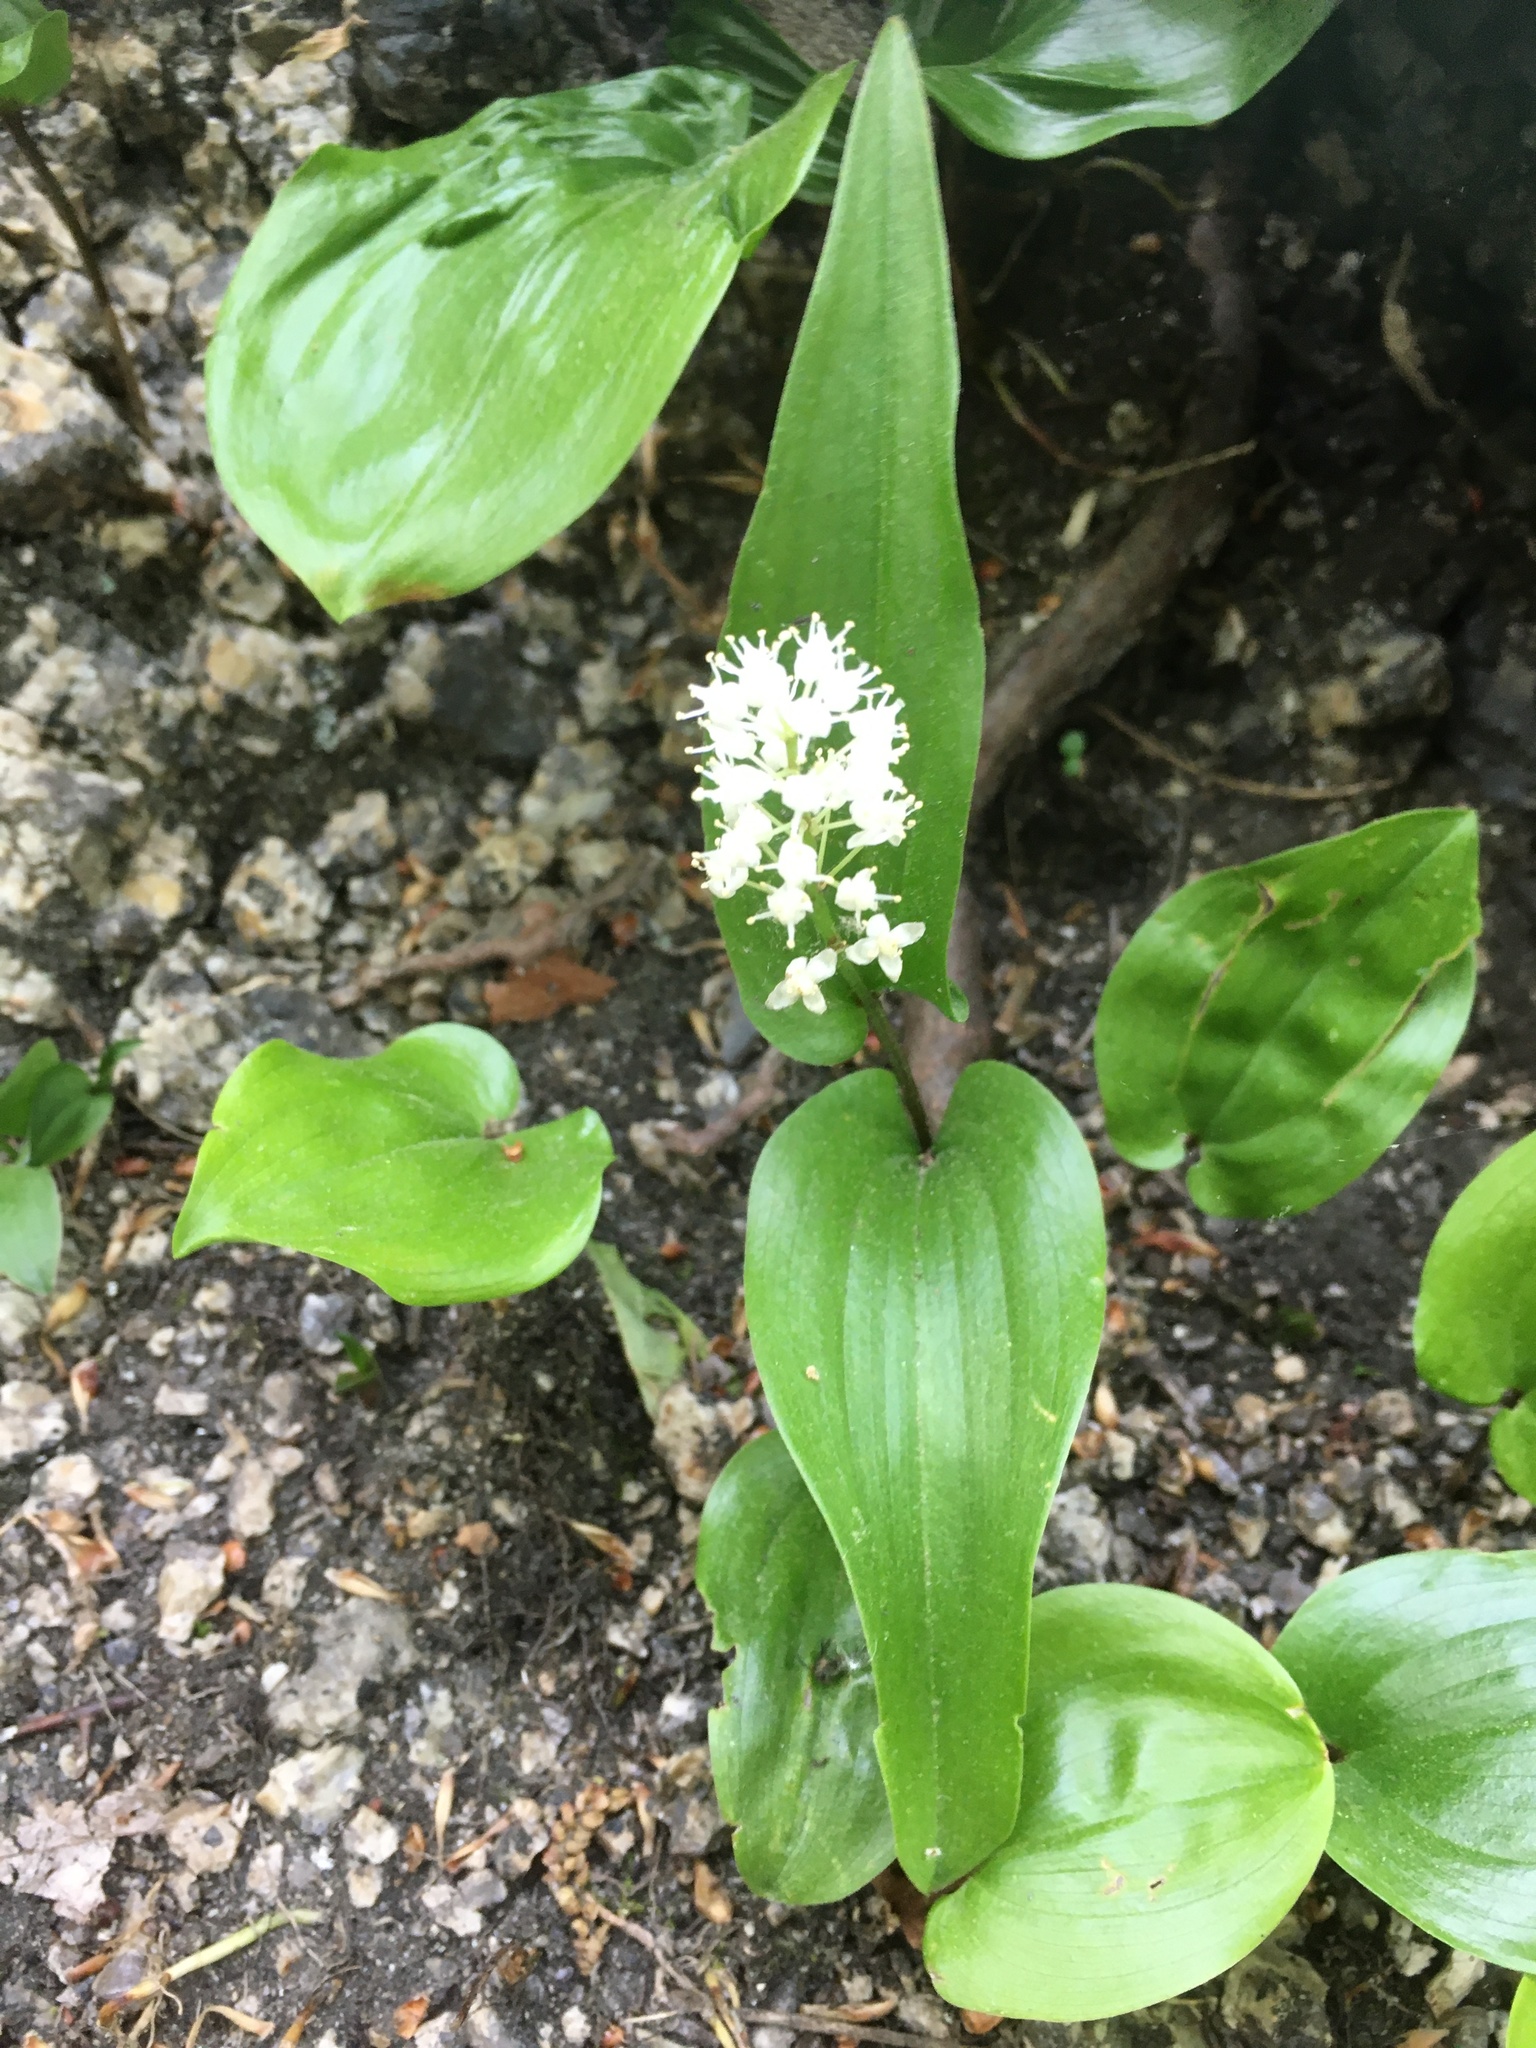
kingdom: Plantae
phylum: Tracheophyta
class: Liliopsida
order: Asparagales
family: Asparagaceae
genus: Maianthemum
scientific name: Maianthemum canadense
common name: False lily-of-the-valley
